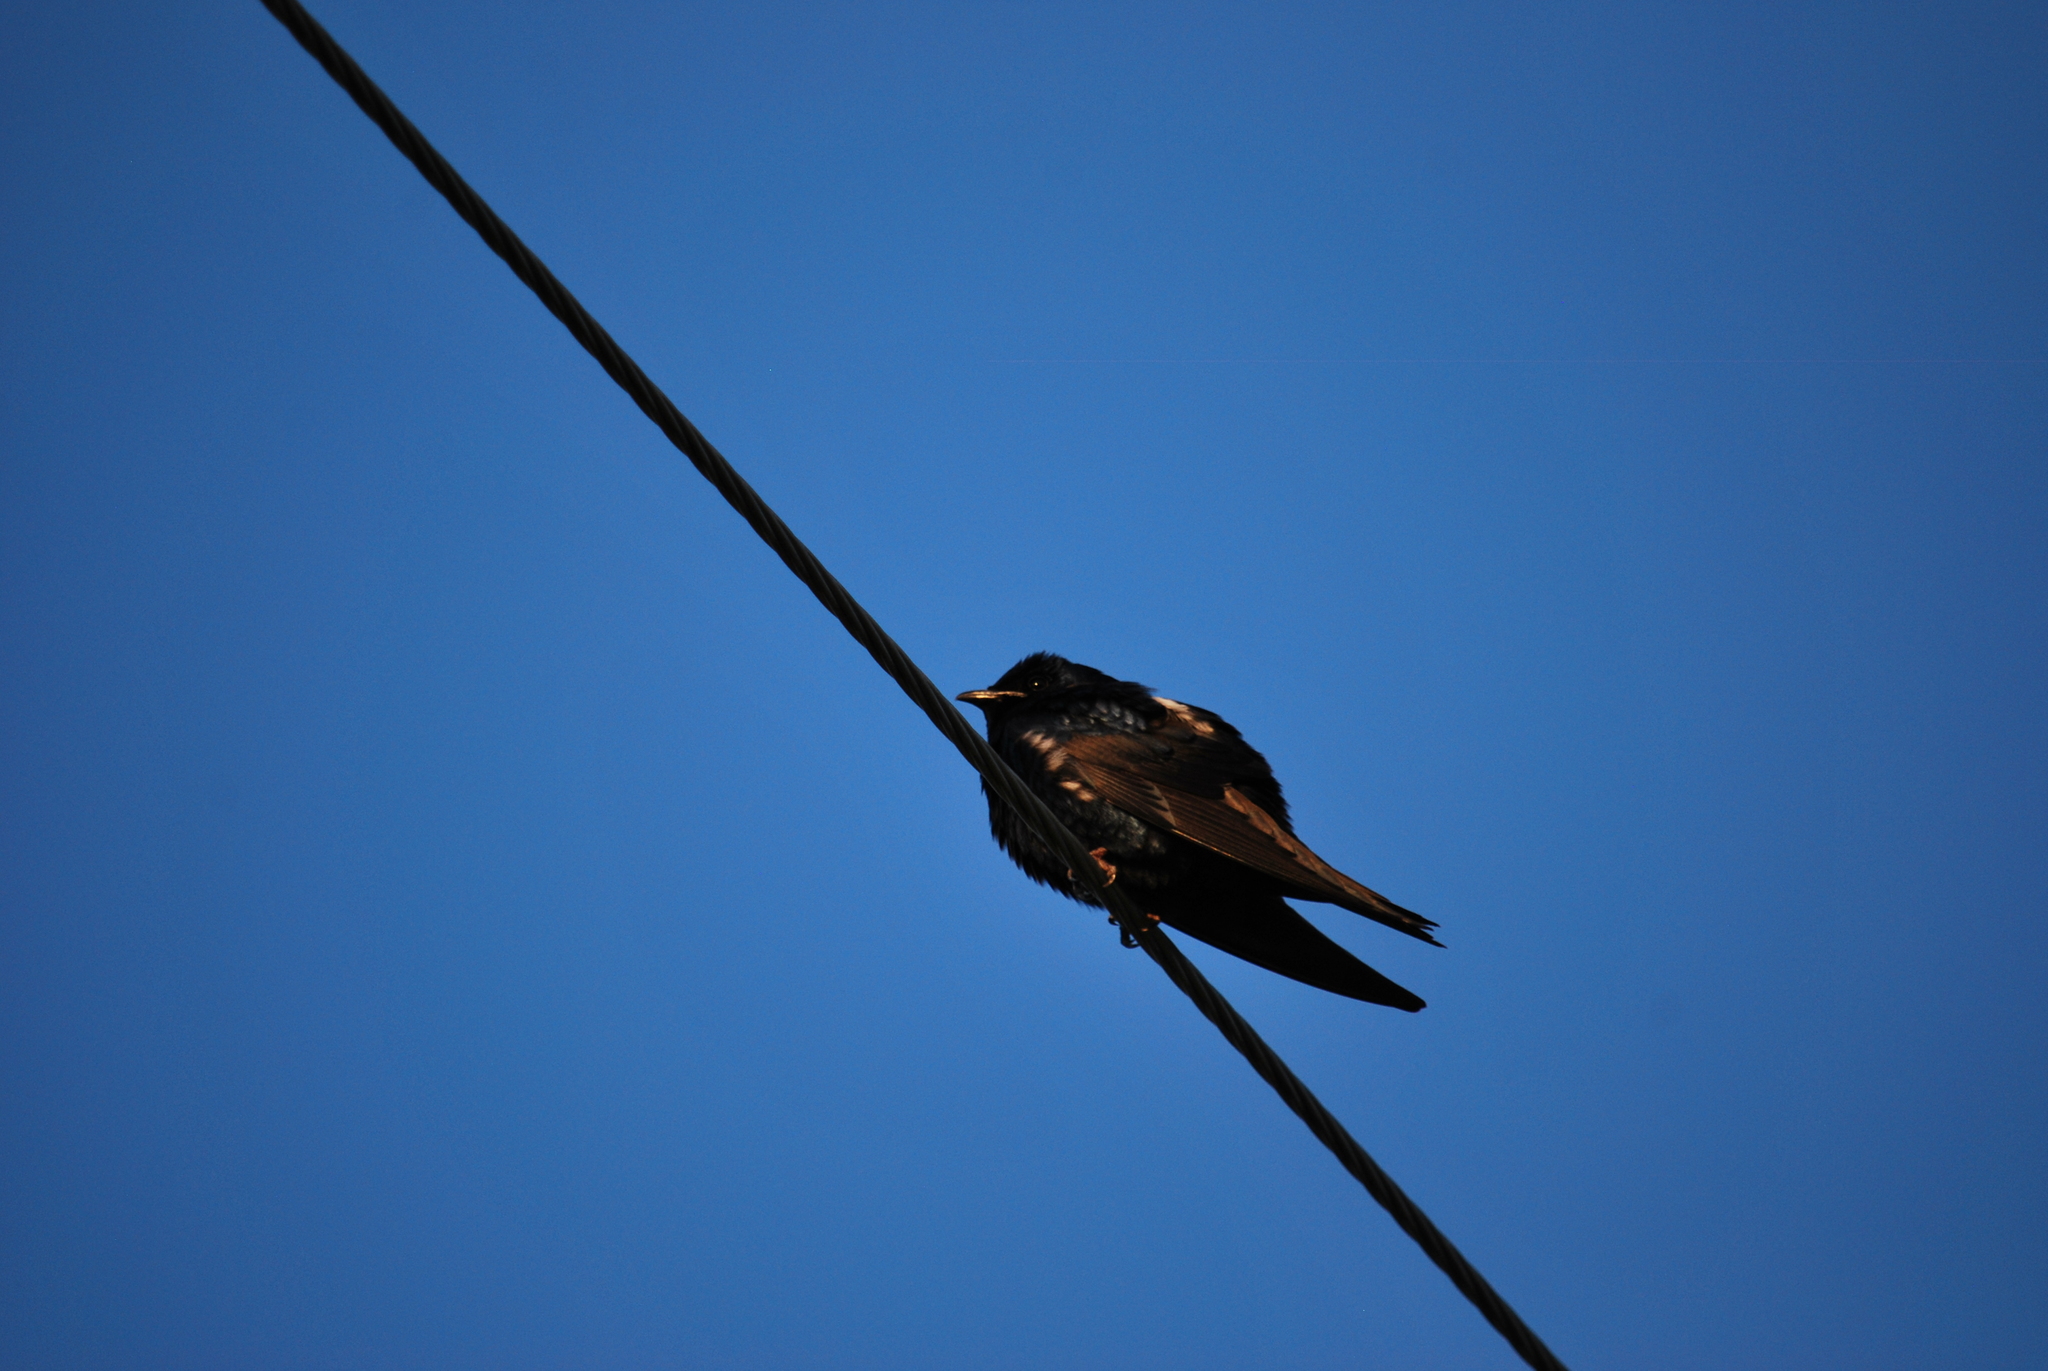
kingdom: Animalia
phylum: Chordata
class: Aves
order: Passeriformes
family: Hirundinidae
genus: Progne
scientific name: Progne subis
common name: Purple martin
